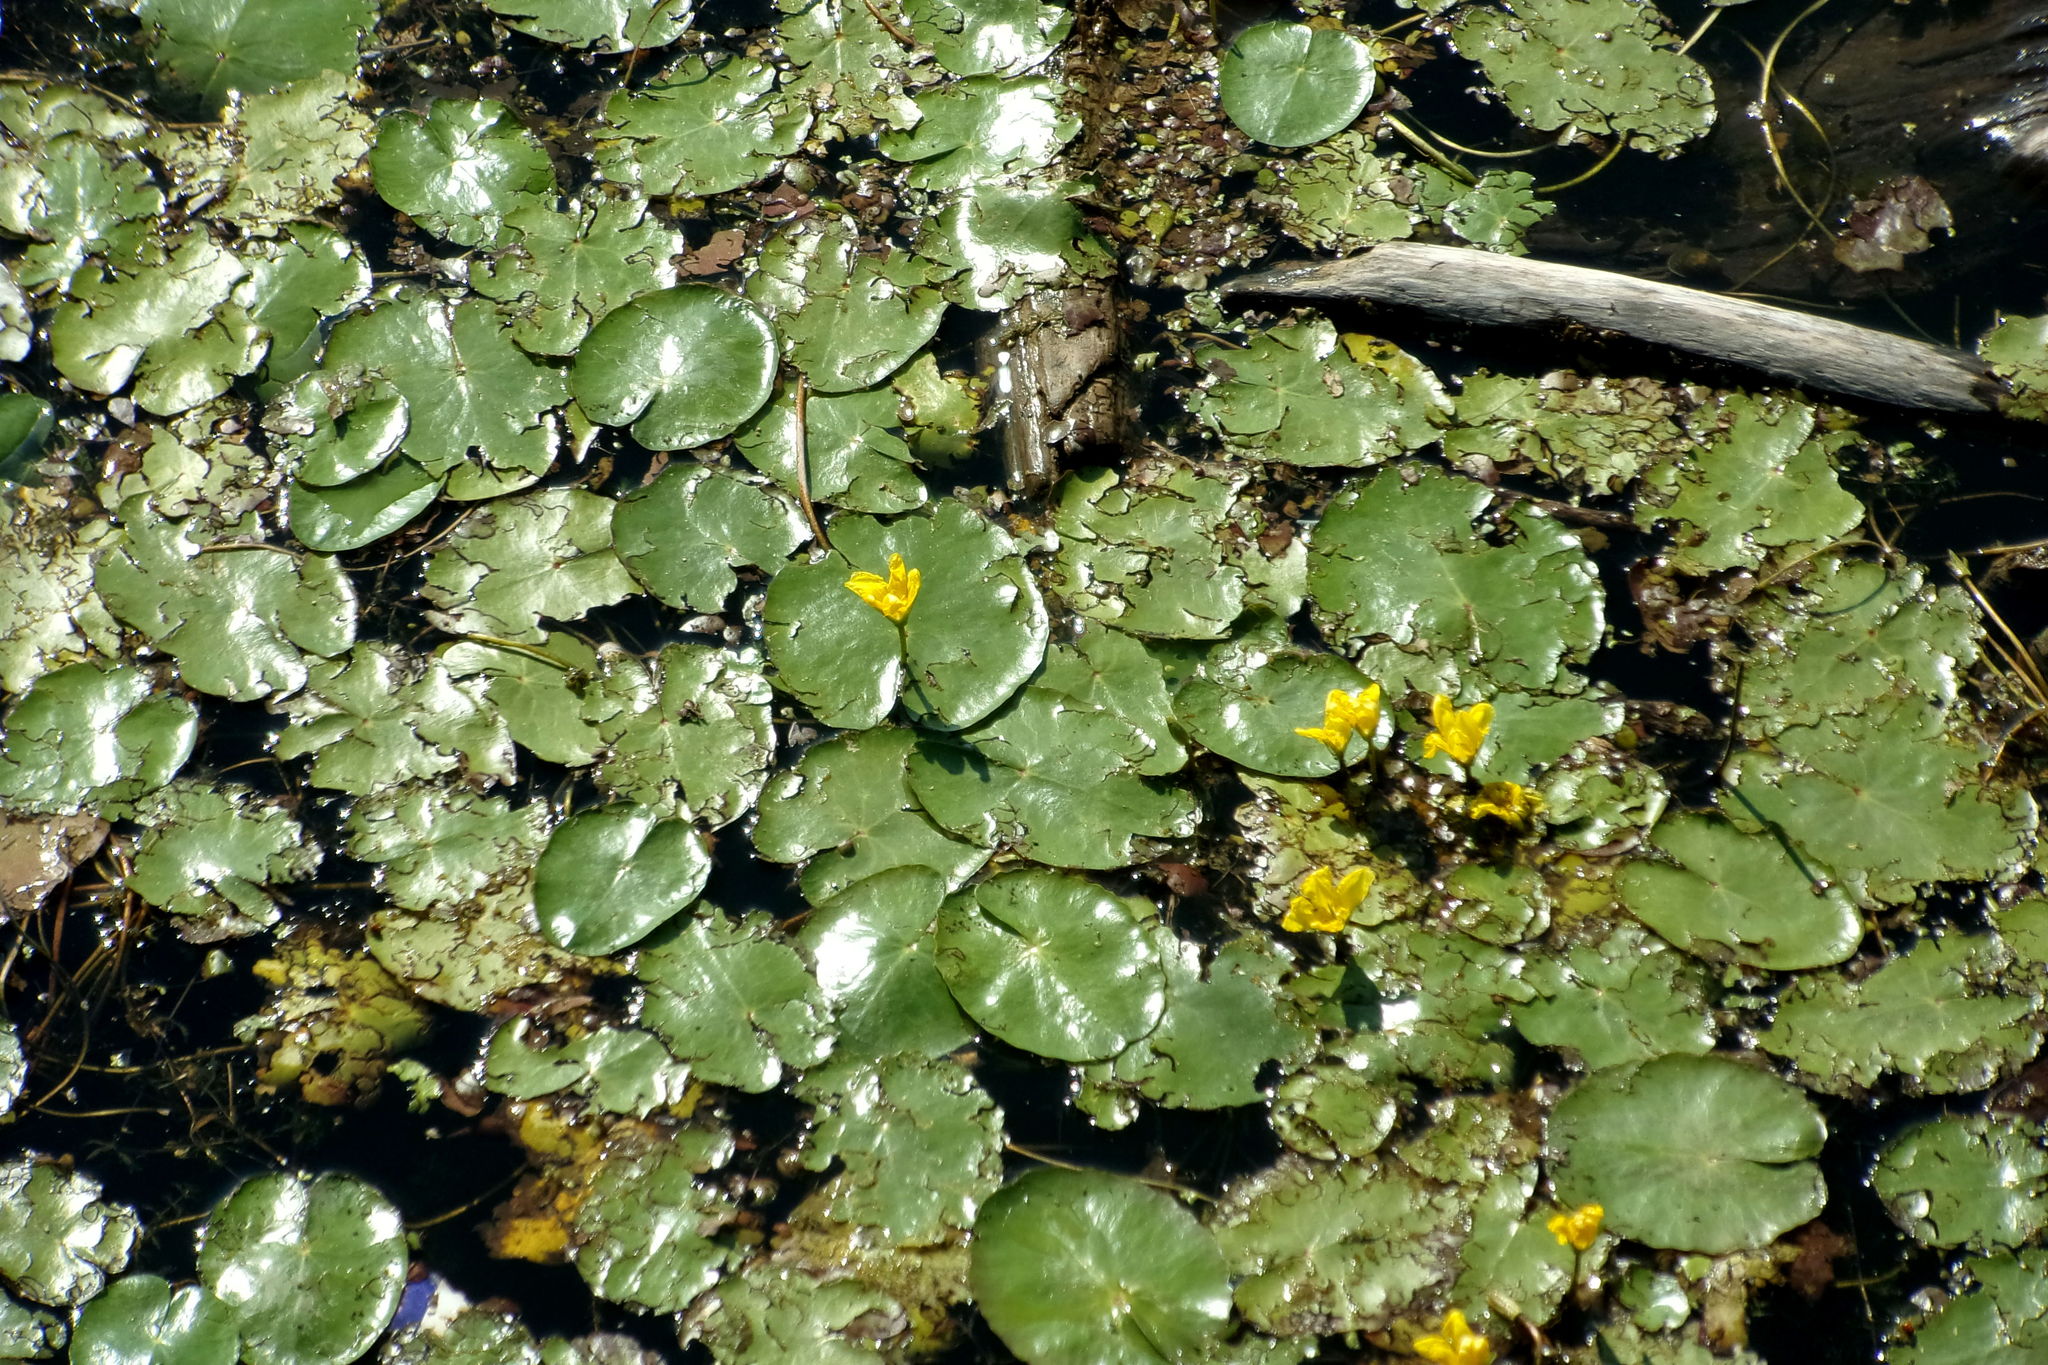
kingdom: Plantae
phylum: Tracheophyta
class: Magnoliopsida
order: Asterales
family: Menyanthaceae
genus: Nymphoides
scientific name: Nymphoides peltata
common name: Fringed water-lily
